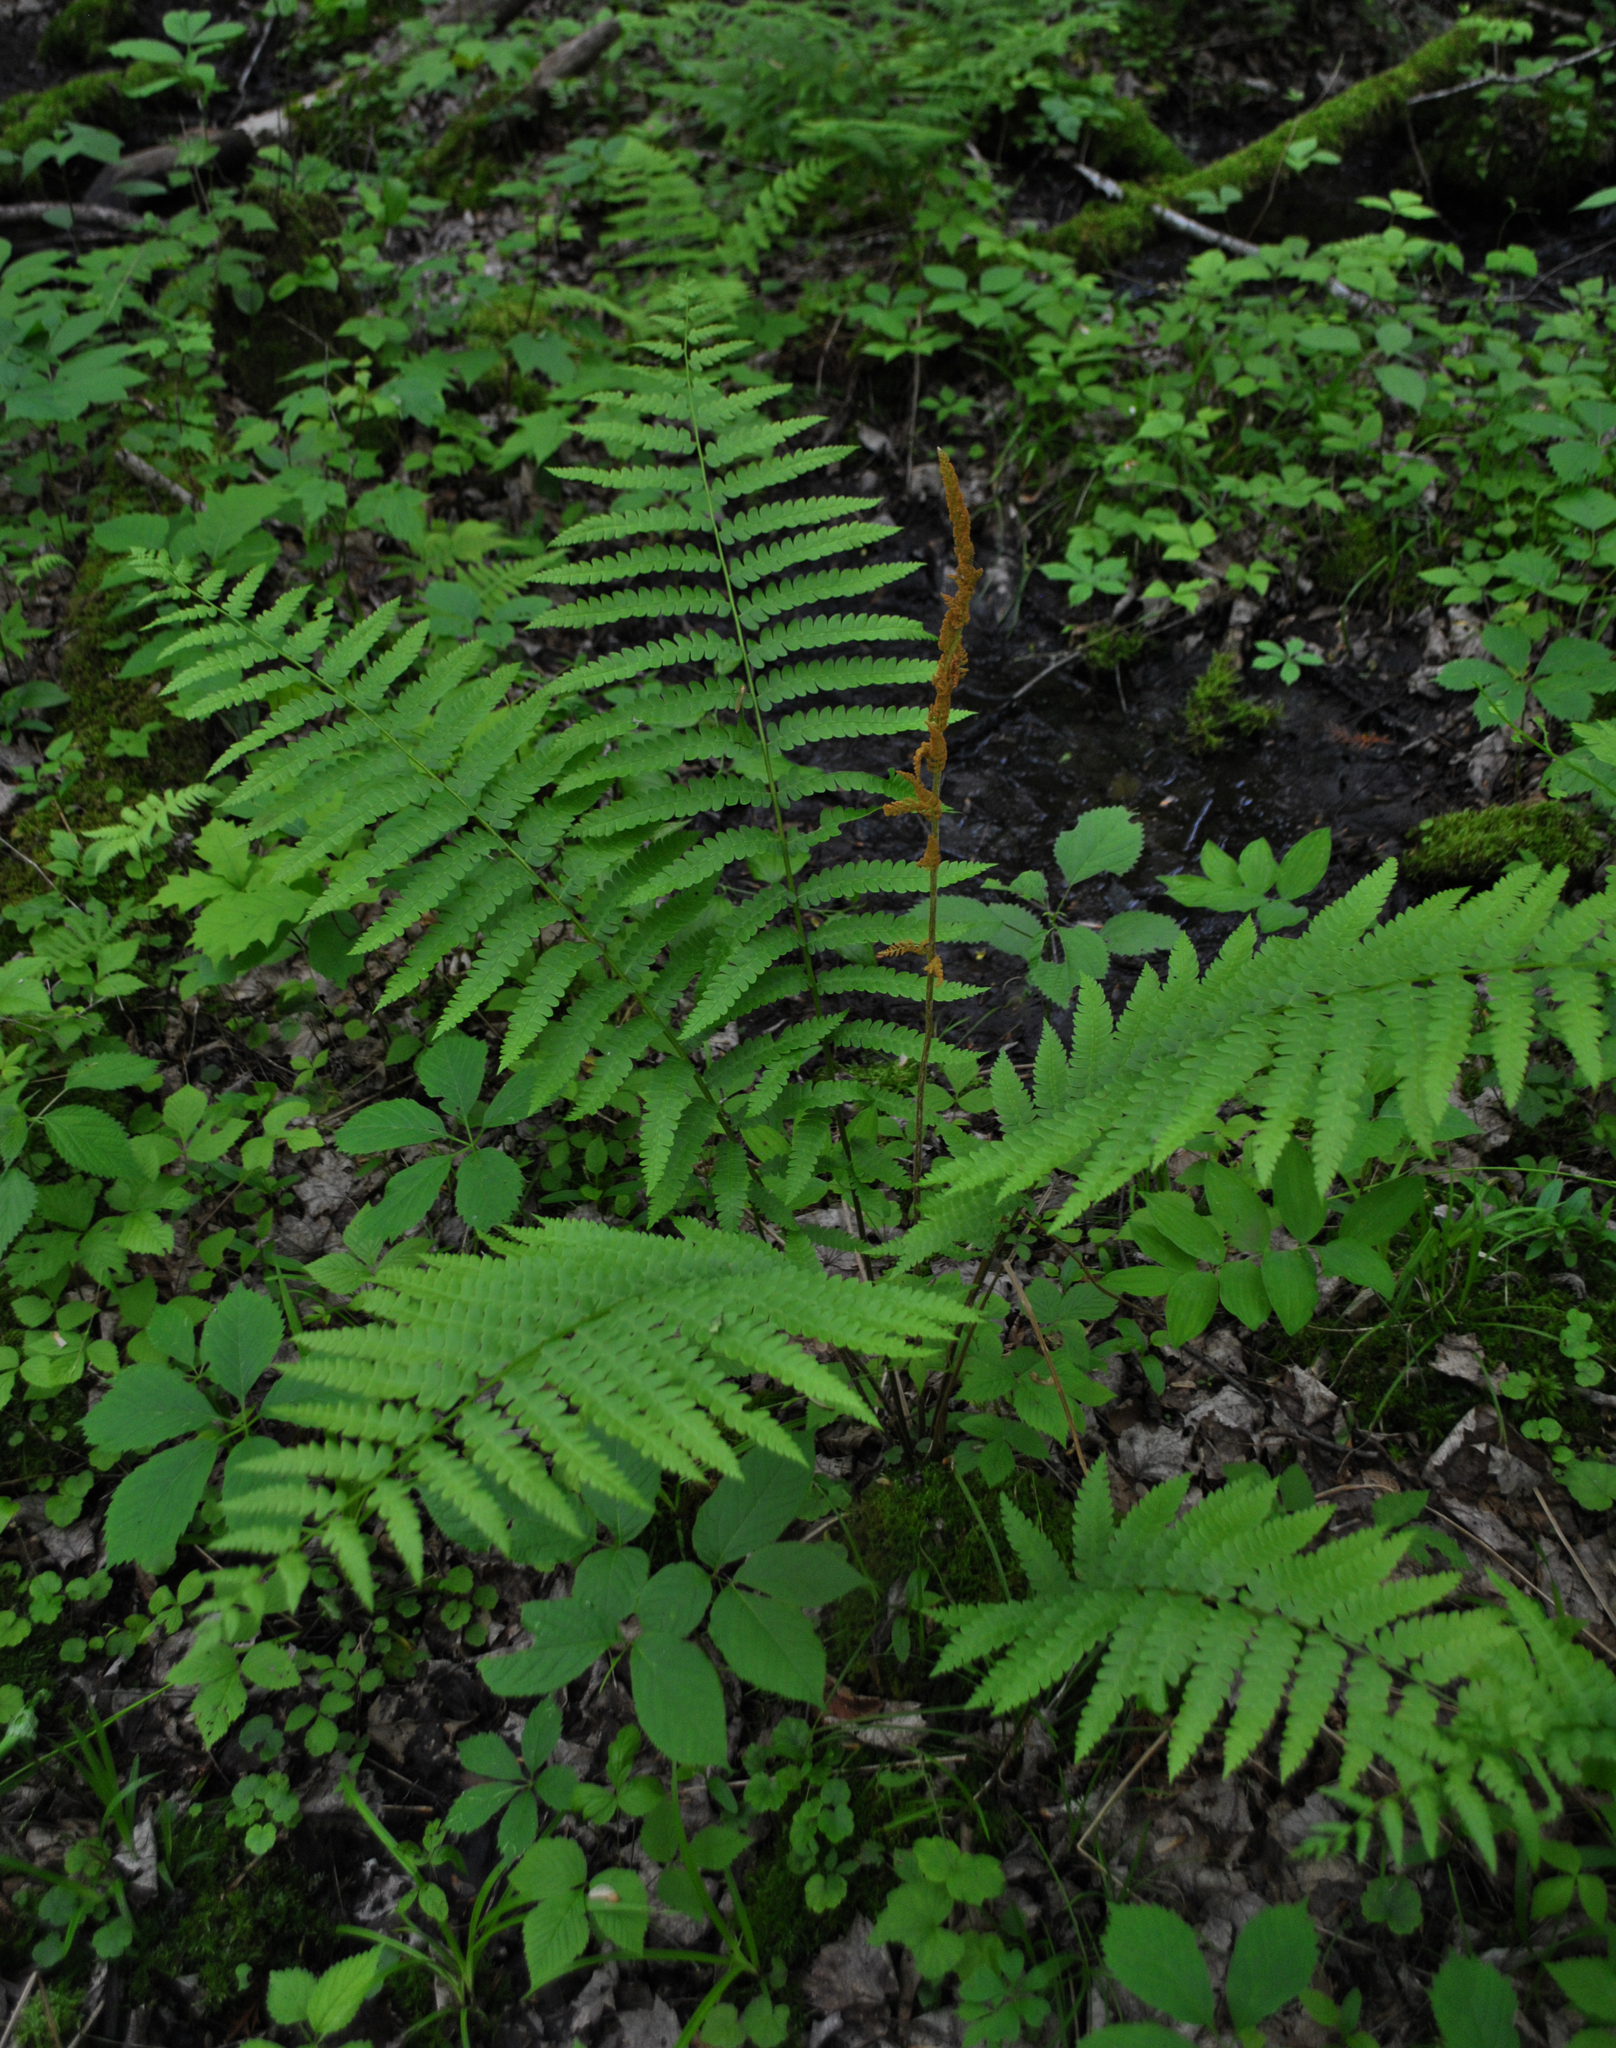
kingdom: Plantae
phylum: Tracheophyta
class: Polypodiopsida
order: Osmundales
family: Osmundaceae
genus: Osmundastrum
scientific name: Osmundastrum cinnamomeum
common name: Cinnamon fern
